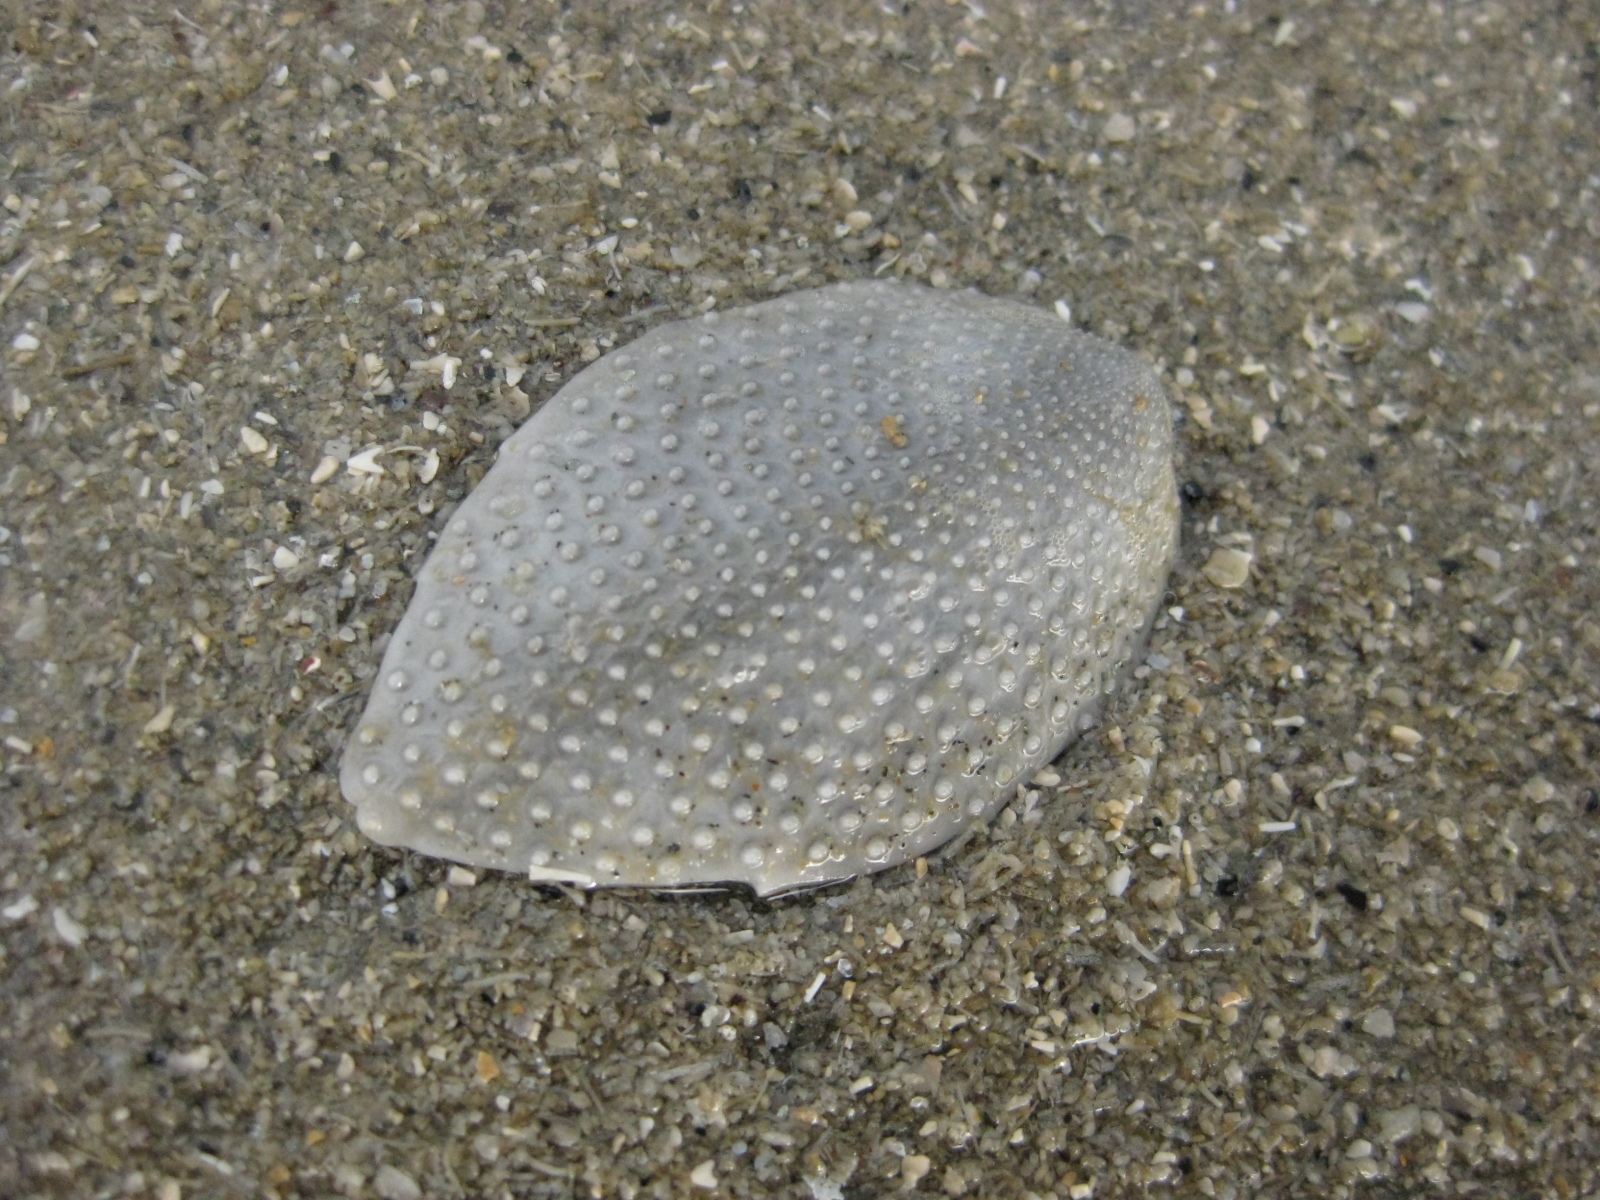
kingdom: Animalia
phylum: Echinodermata
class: Echinoidea
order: Spatangoida
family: Loveniidae
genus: Echinocardium
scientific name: Echinocardium cordatum
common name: Heart-urchin
